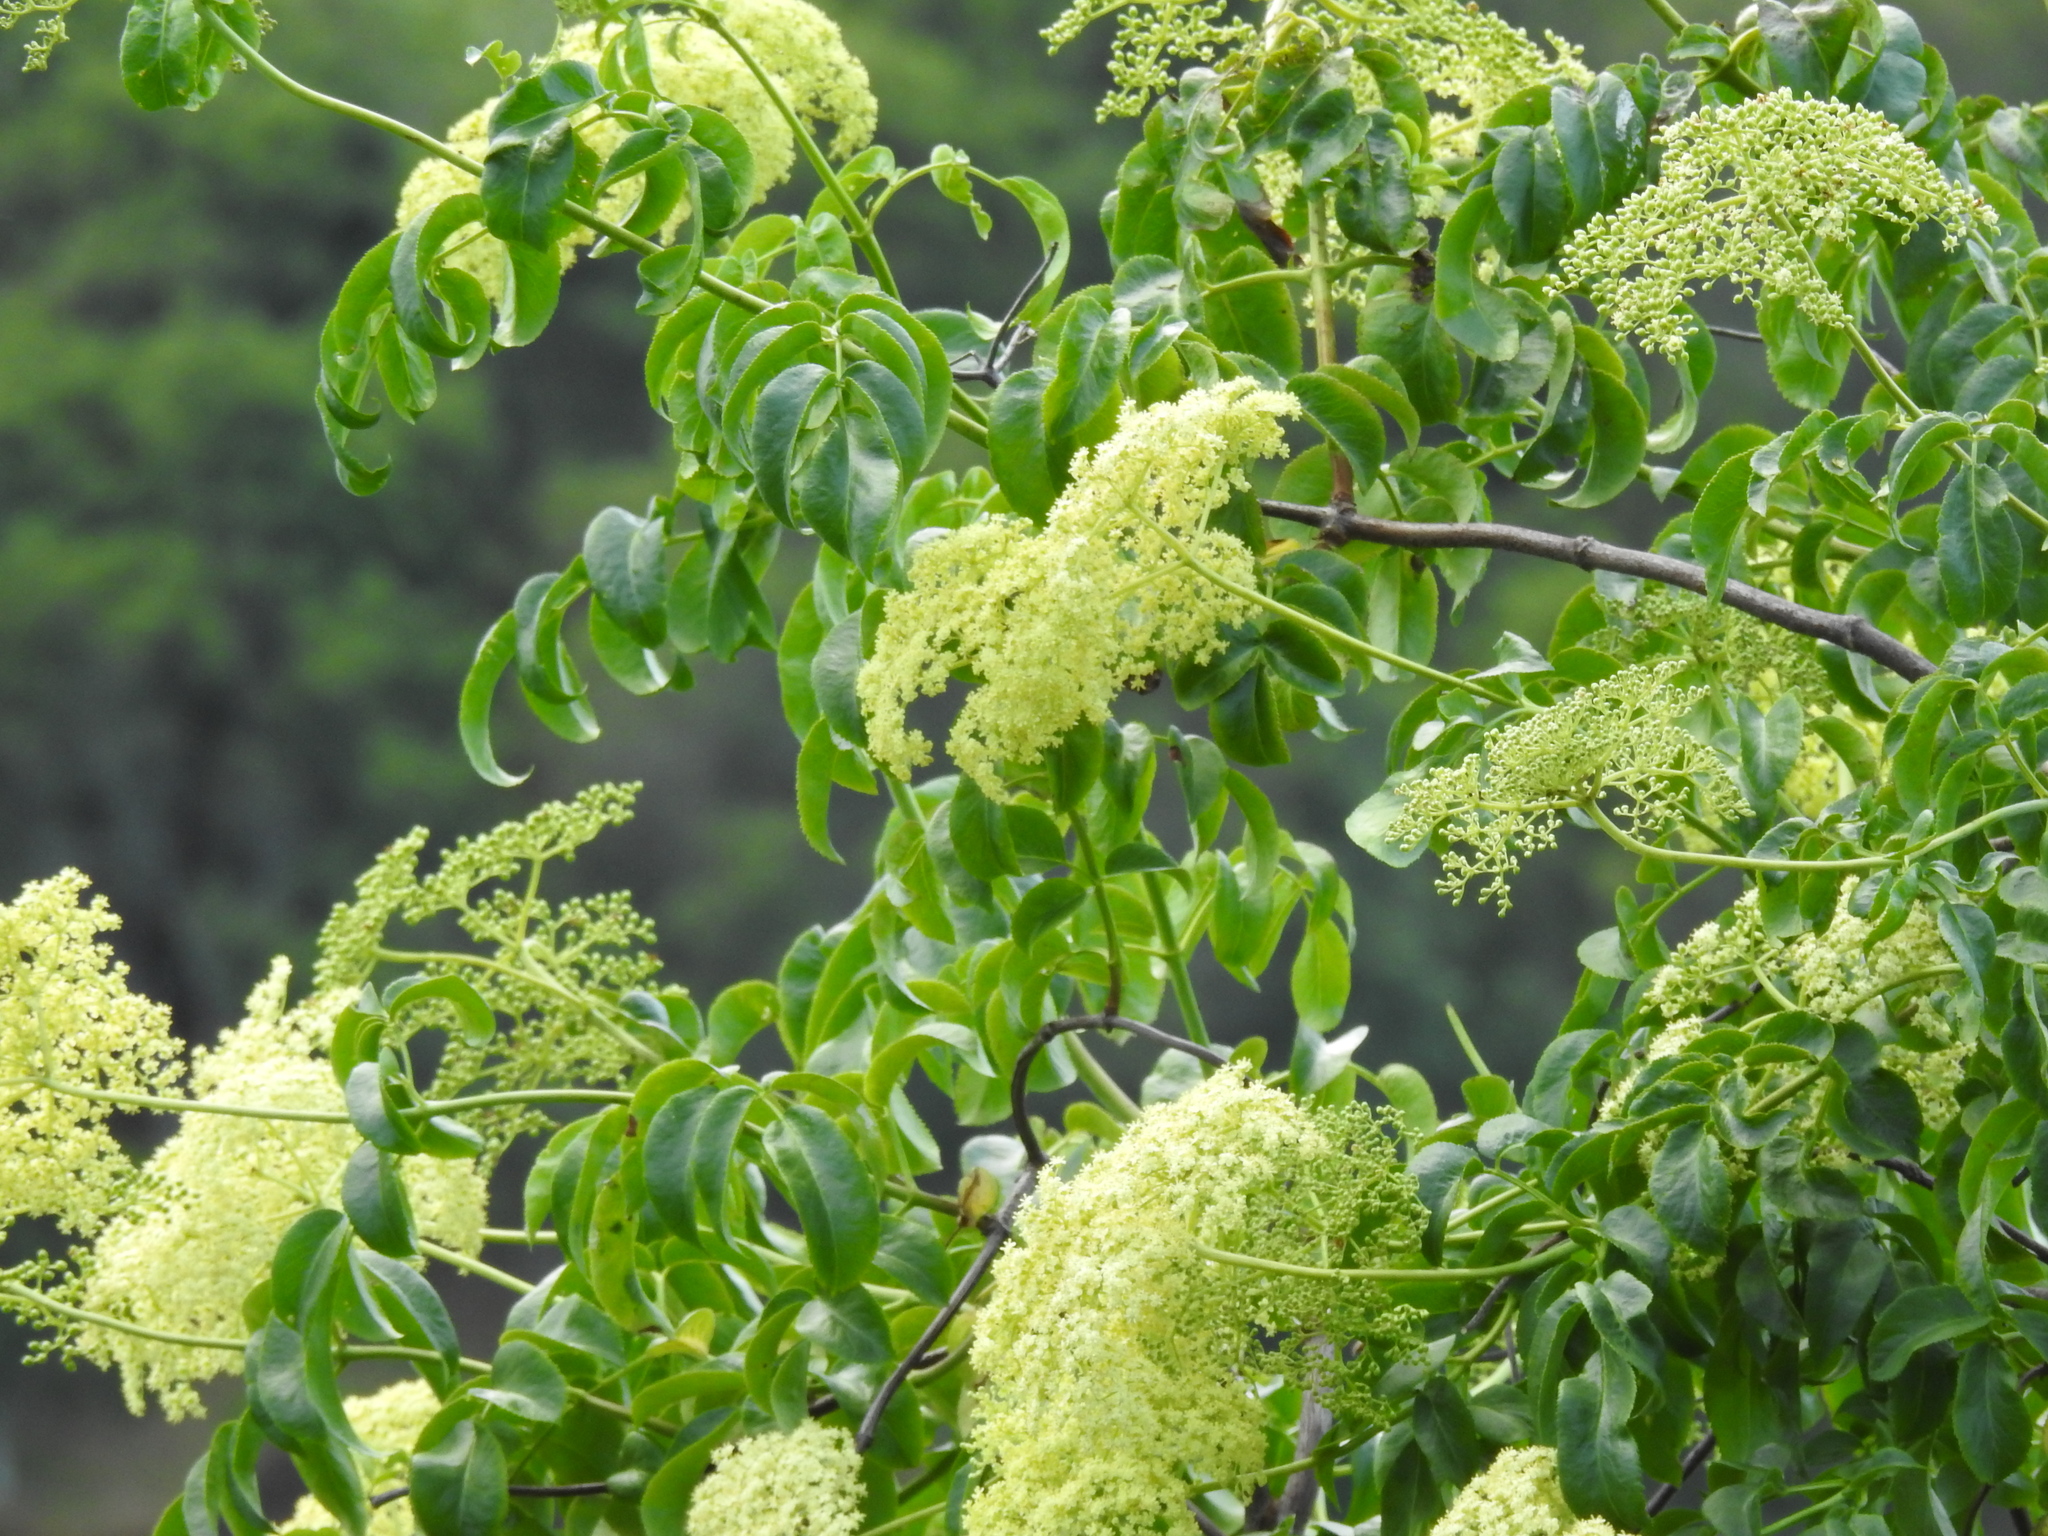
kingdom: Plantae
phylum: Tracheophyta
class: Magnoliopsida
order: Dipsacales
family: Viburnaceae
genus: Sambucus
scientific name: Sambucus cerulea
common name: Blue elder
